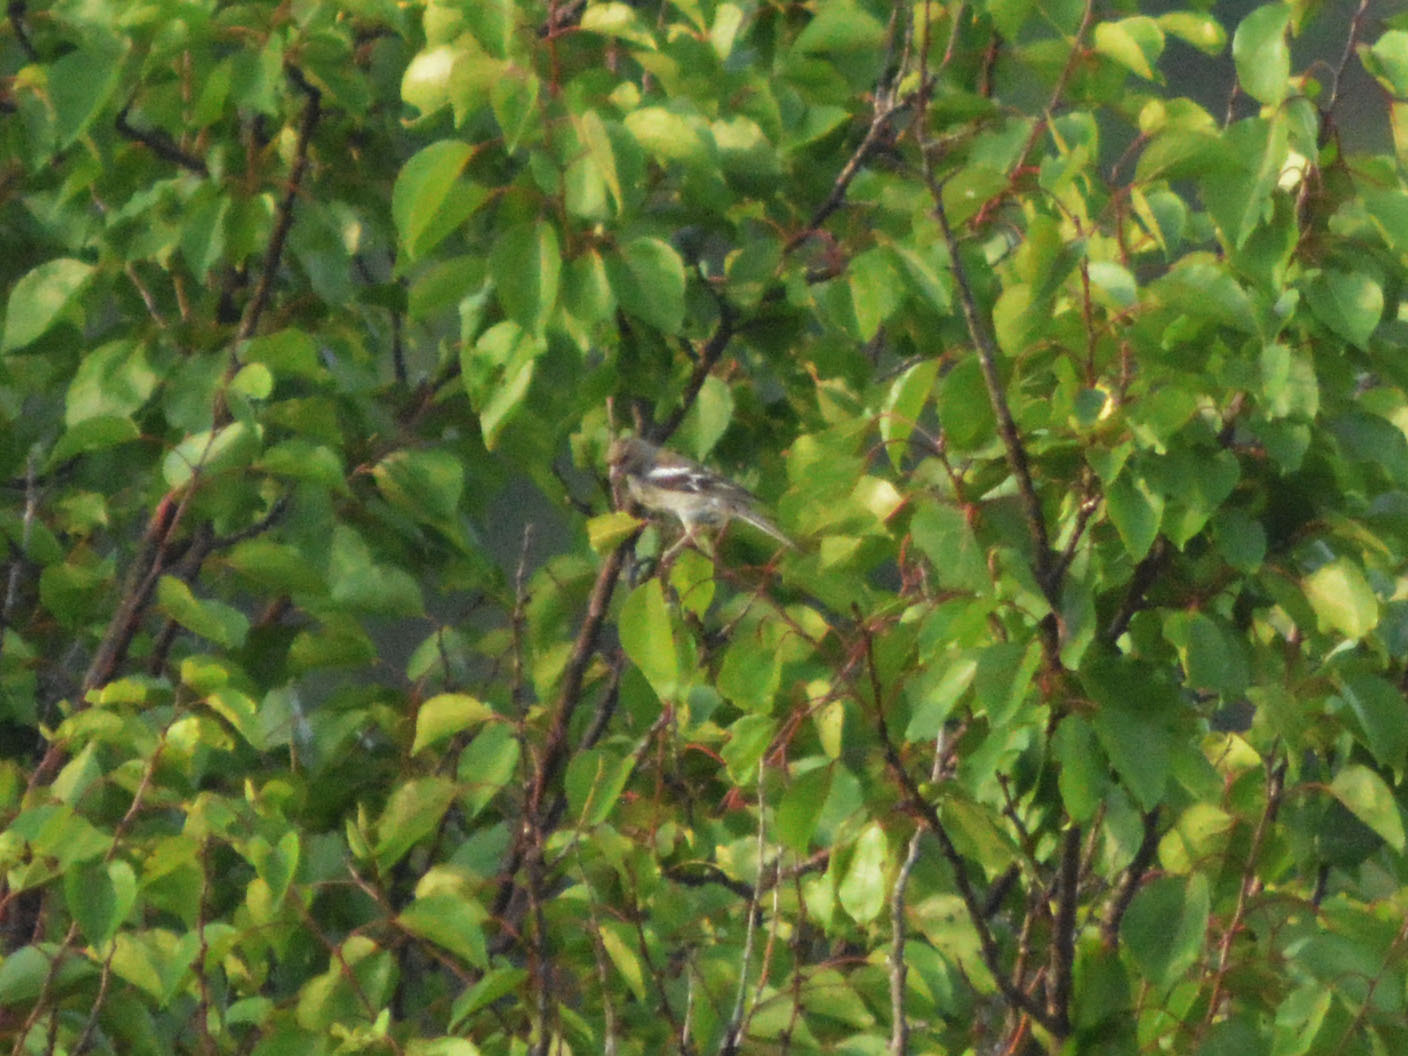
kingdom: Animalia
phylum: Chordata
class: Aves
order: Passeriformes
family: Fringillidae
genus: Fringilla
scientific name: Fringilla coelebs
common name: Common chaffinch
